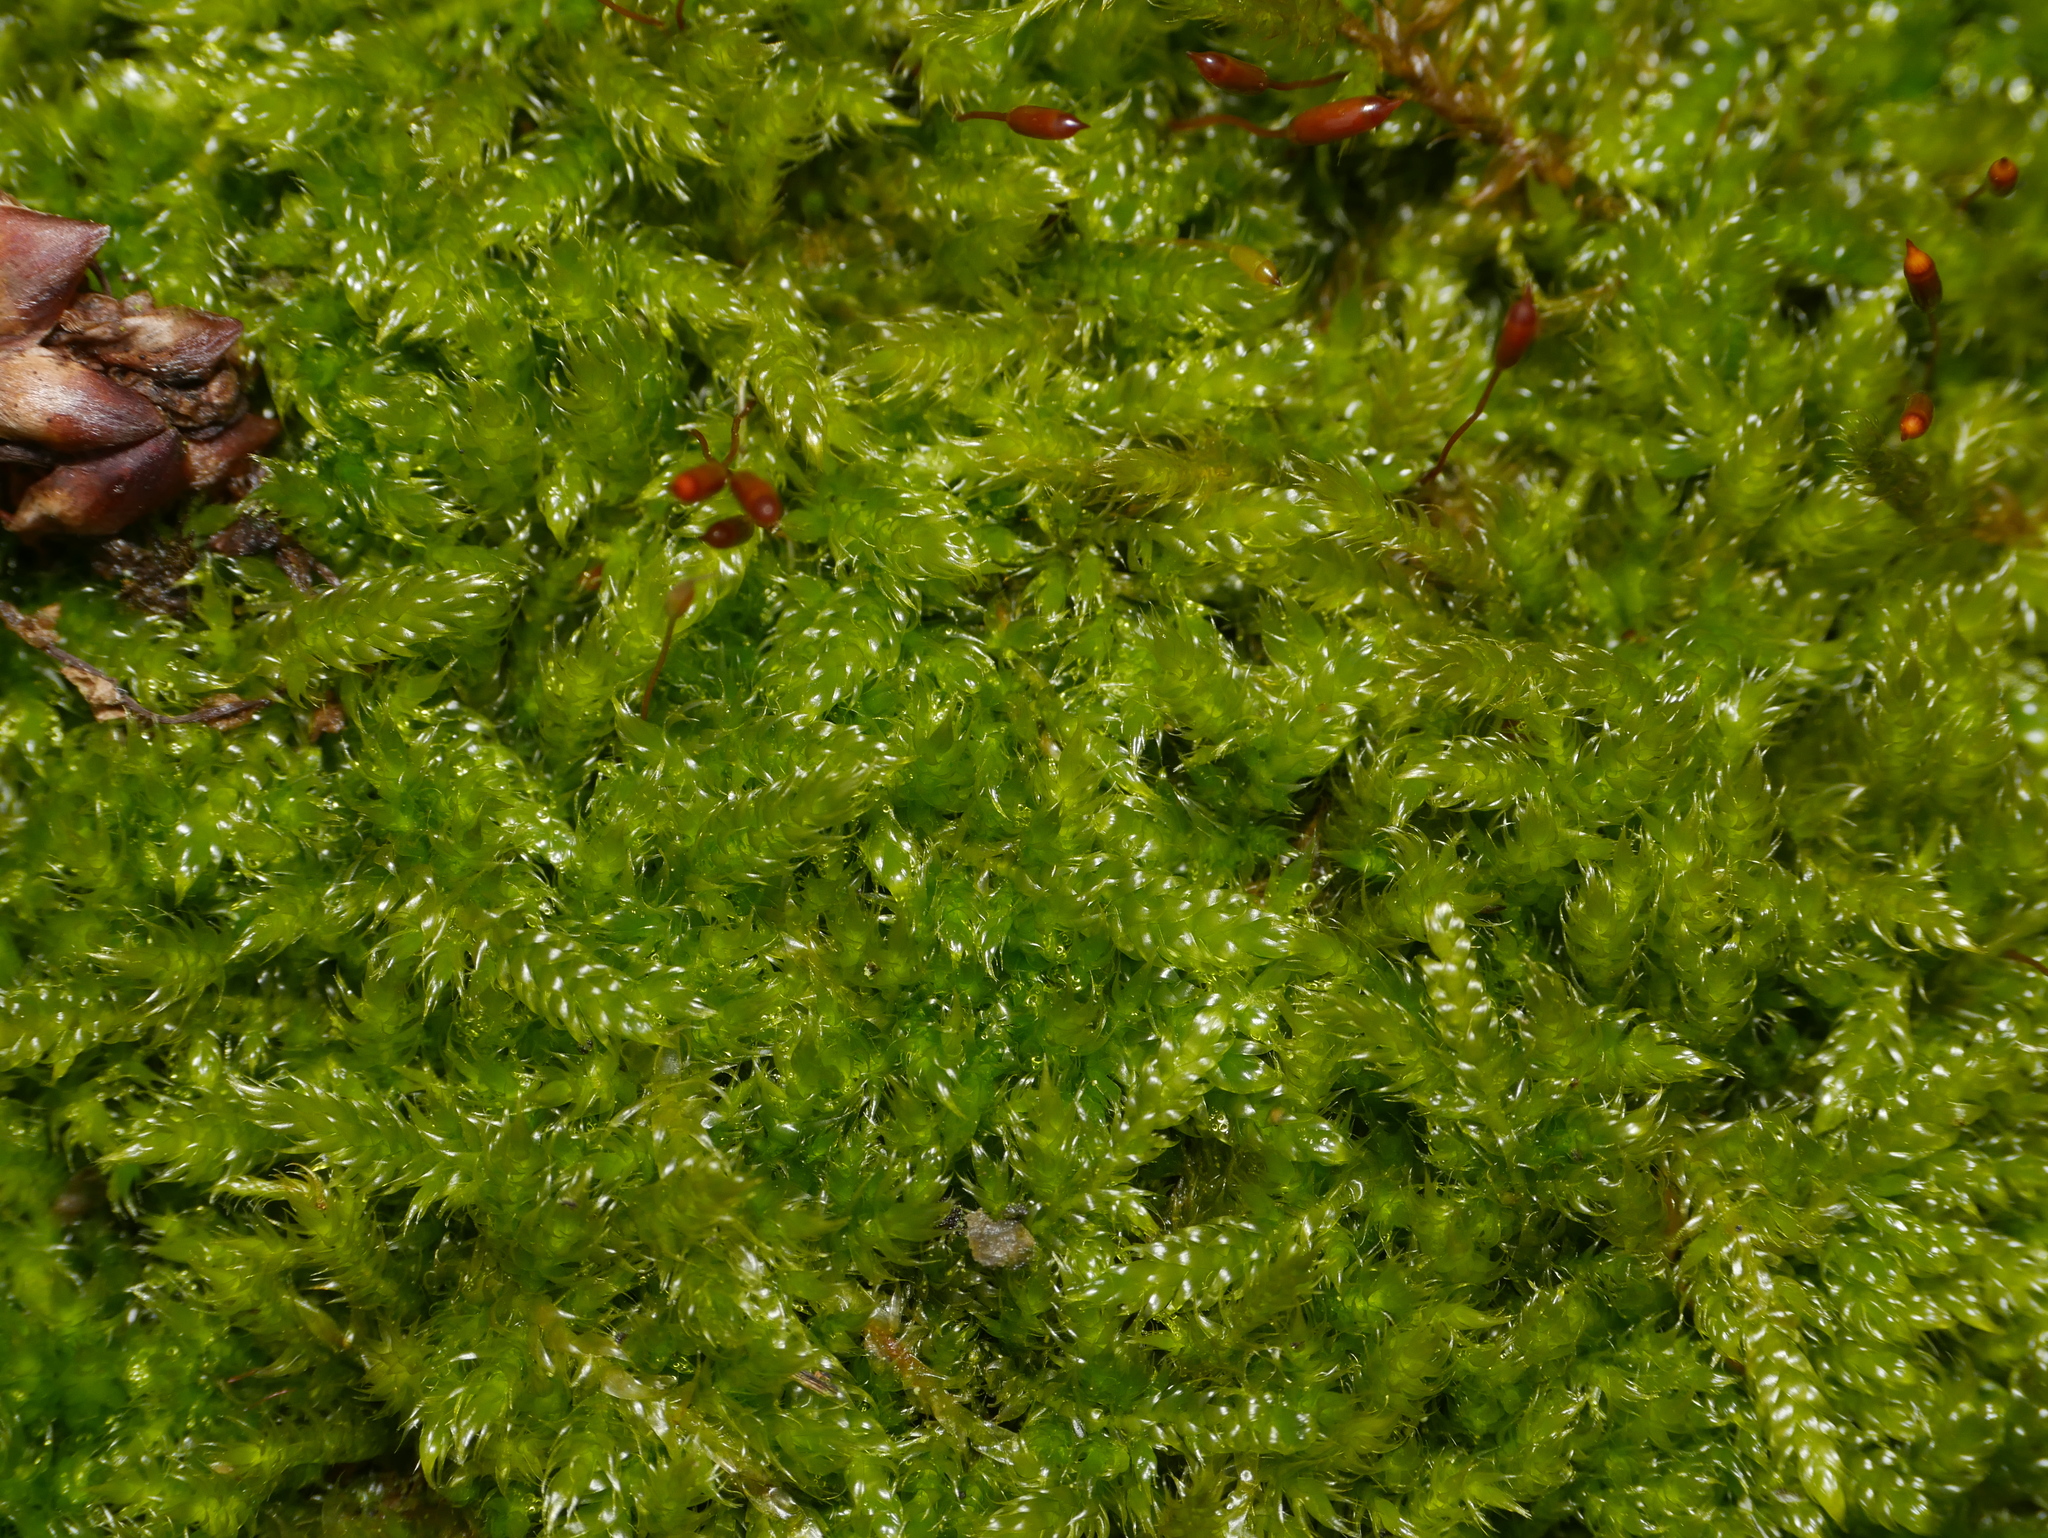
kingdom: Plantae
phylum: Bryophyta
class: Bryopsida
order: Hypnales
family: Hypnaceae
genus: Hypnum
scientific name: Hypnum cupressiforme
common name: Cypress-leaved plait-moss
